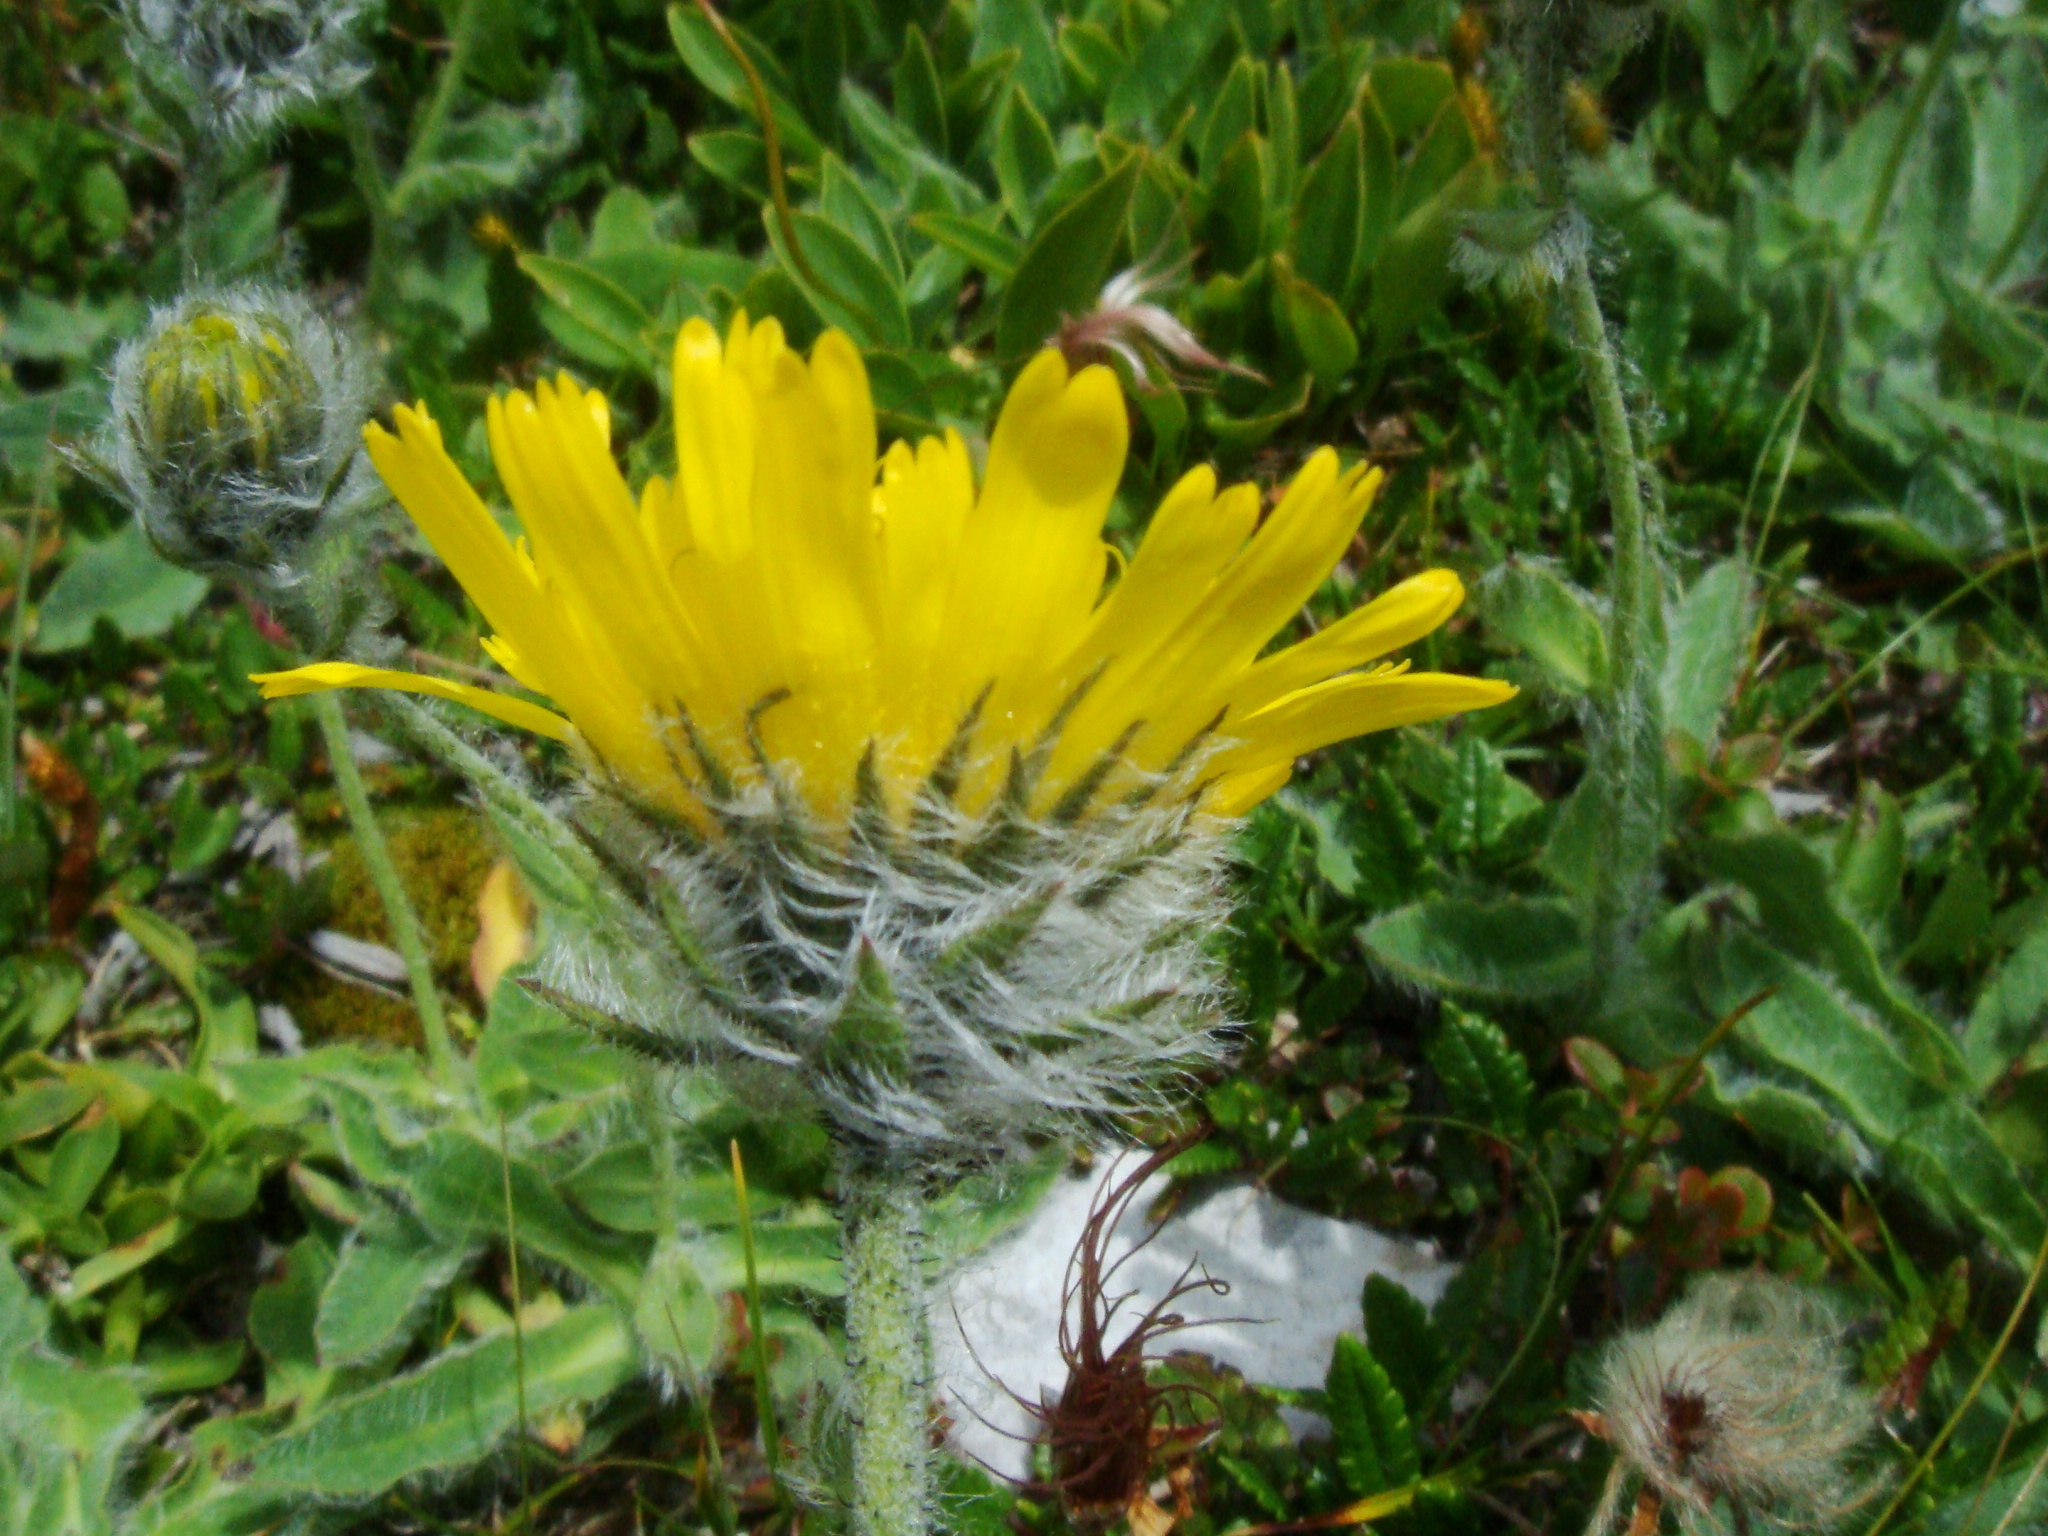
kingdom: Plantae
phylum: Tracheophyta
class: Magnoliopsida
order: Asterales
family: Asteraceae
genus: Hieracium
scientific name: Hieracium villosum
